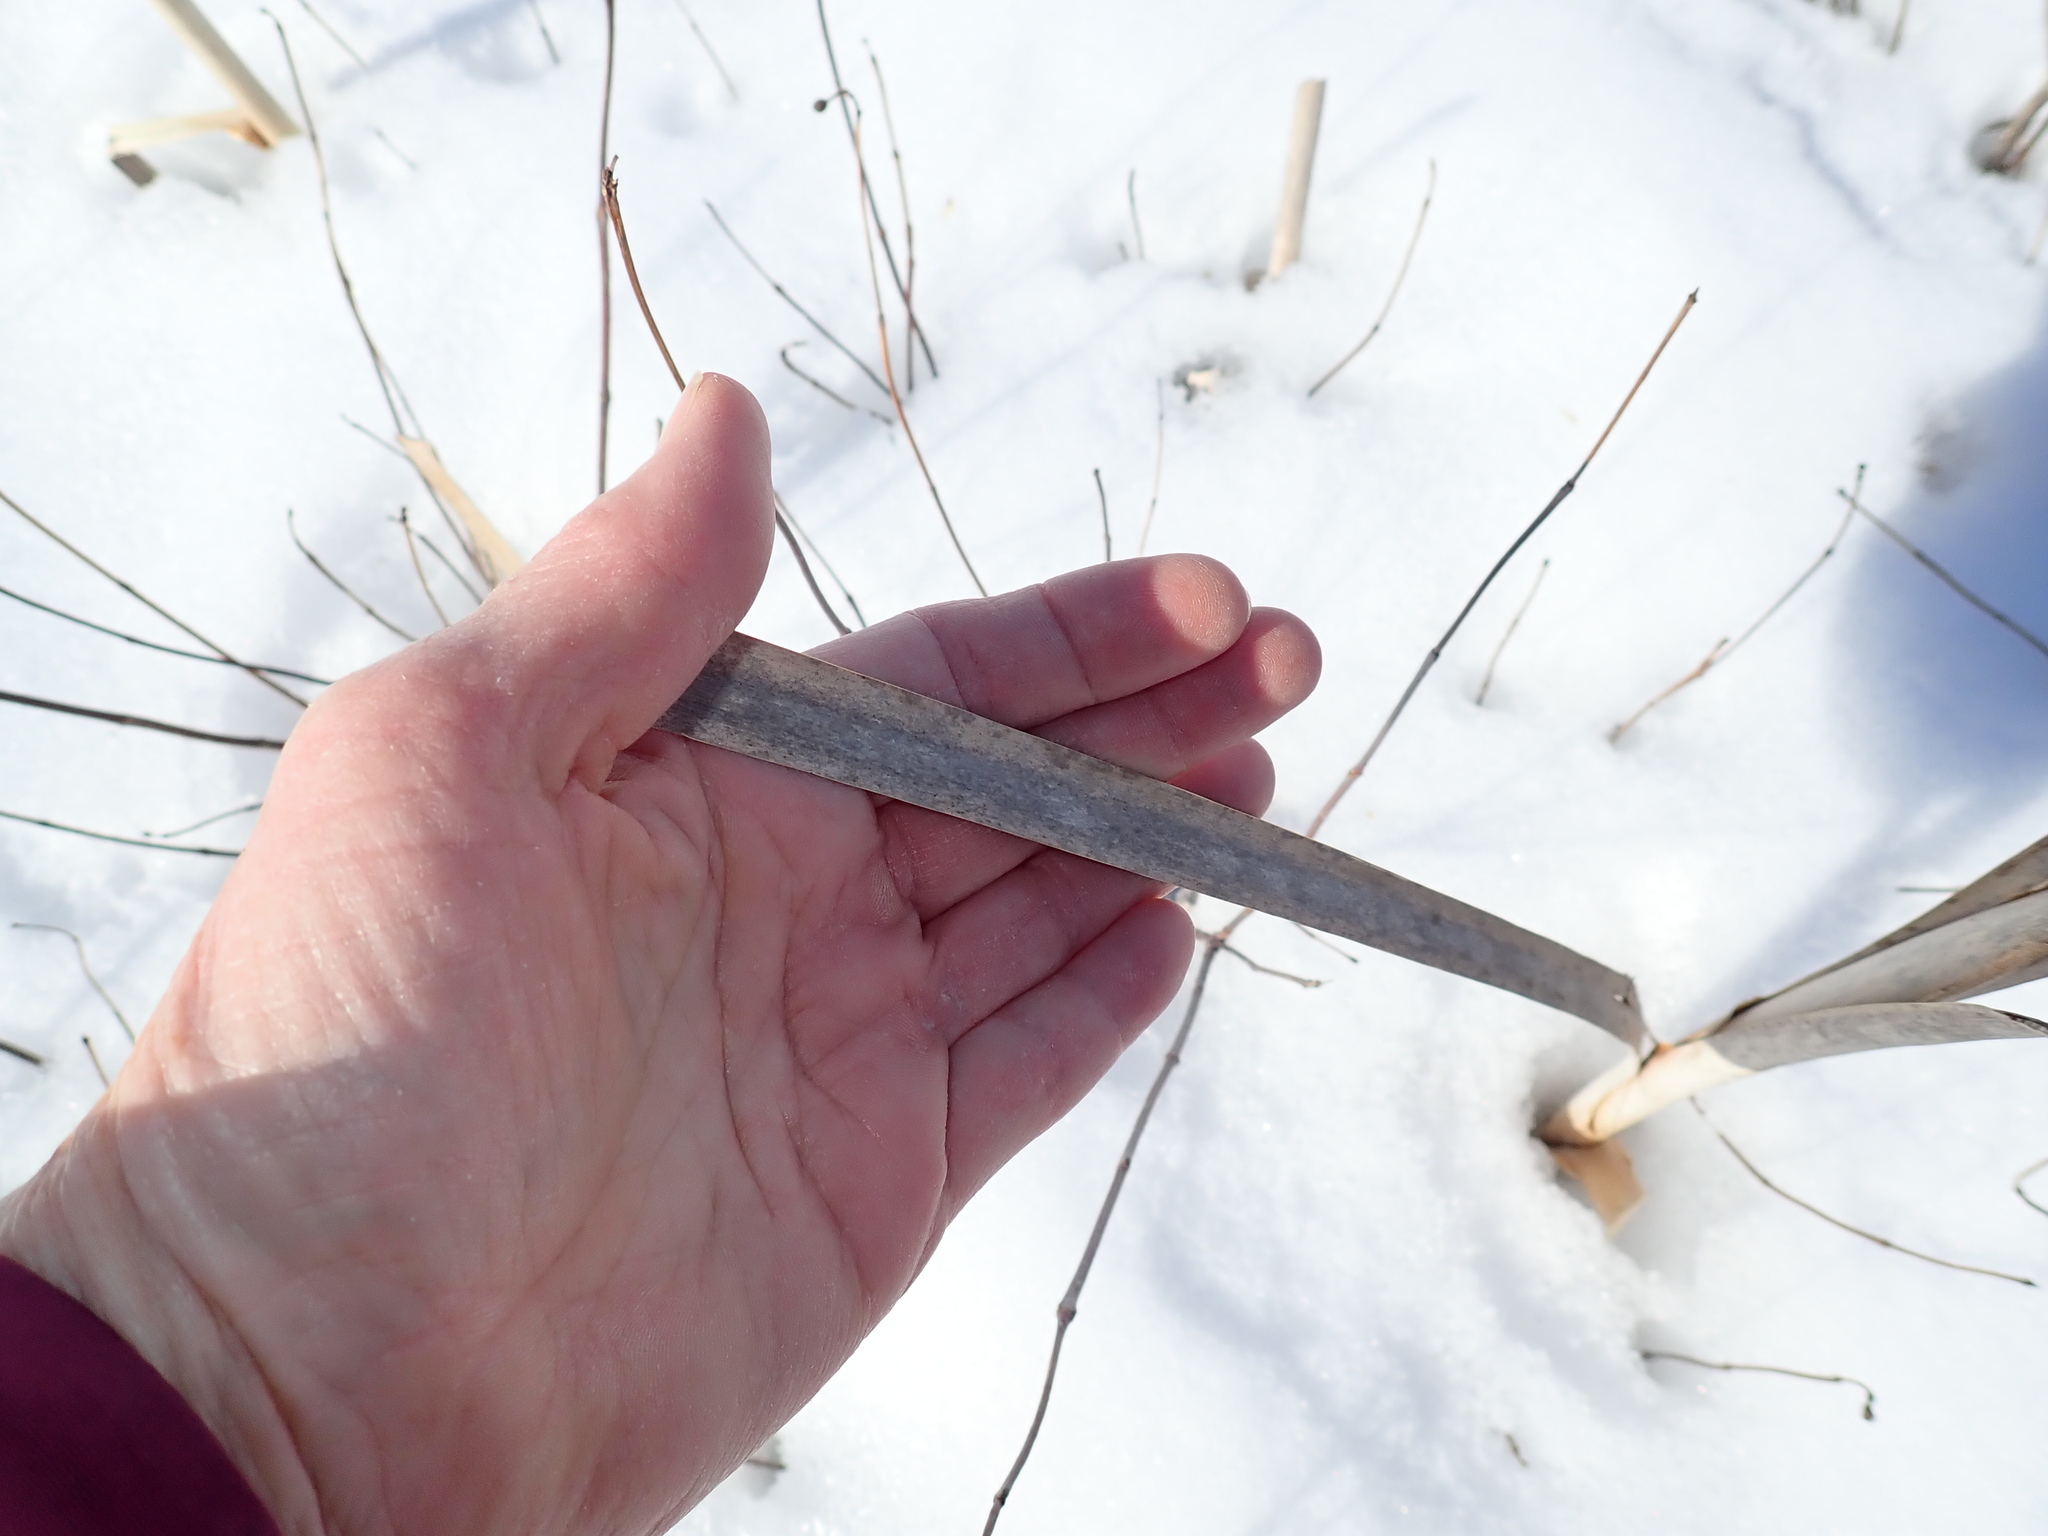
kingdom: Plantae
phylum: Tracheophyta
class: Liliopsida
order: Poales
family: Typhaceae
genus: Typha
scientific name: Typha latifolia
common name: Broadleaf cattail
